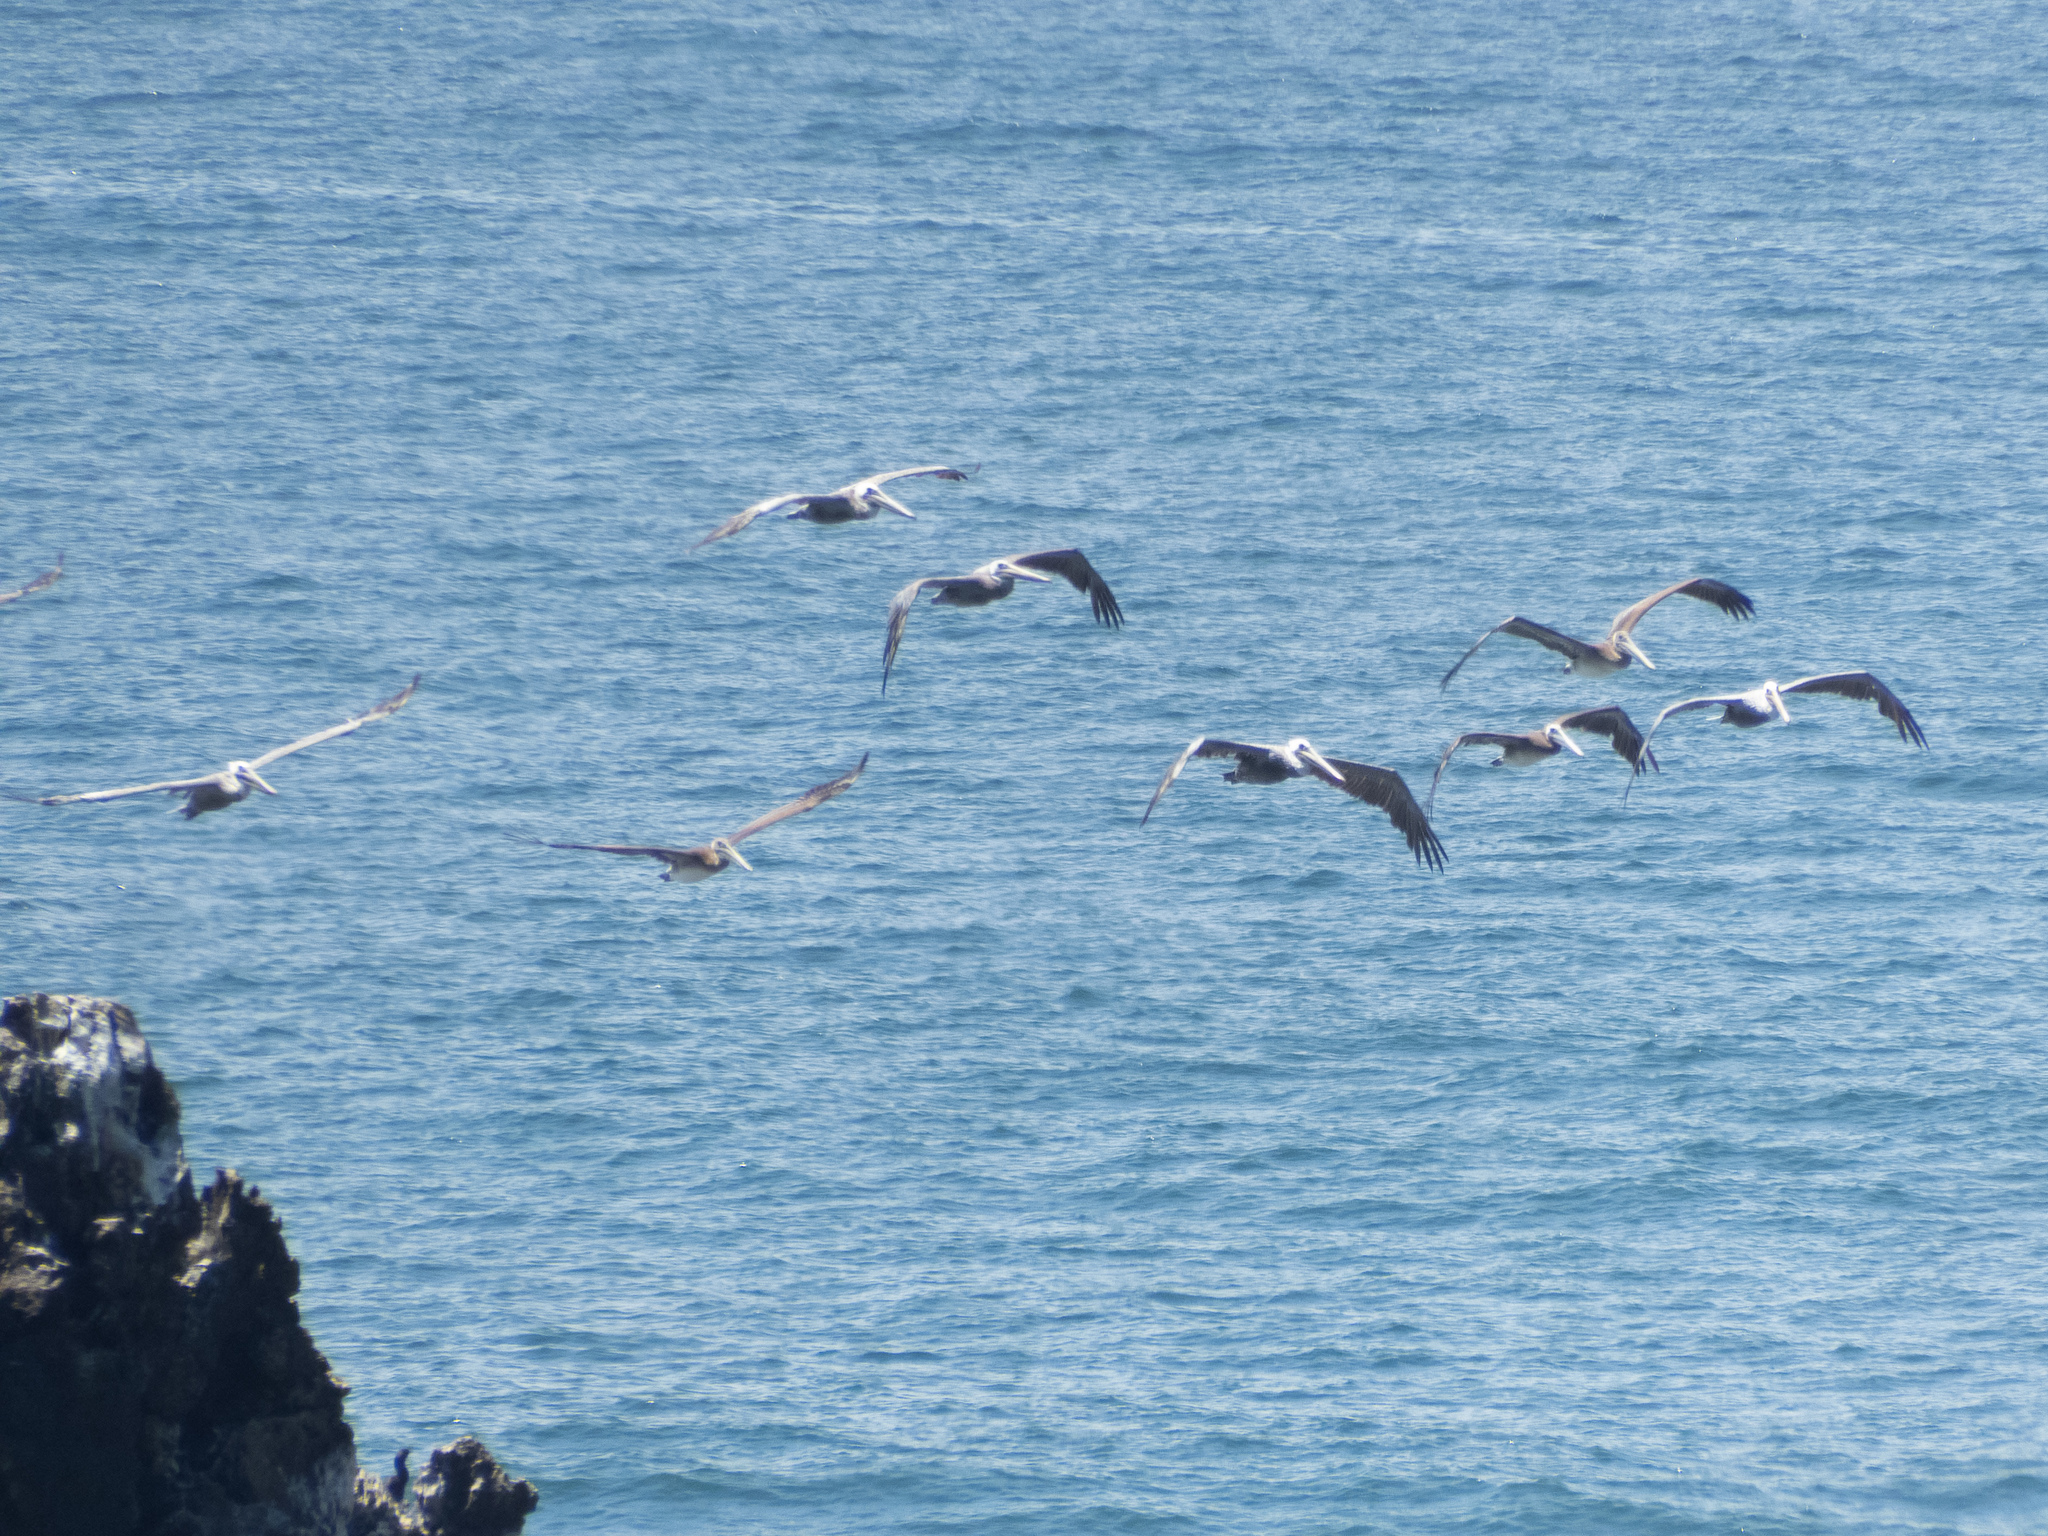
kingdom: Animalia
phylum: Chordata
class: Aves
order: Pelecaniformes
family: Pelecanidae
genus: Pelecanus
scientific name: Pelecanus occidentalis
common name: Brown pelican
